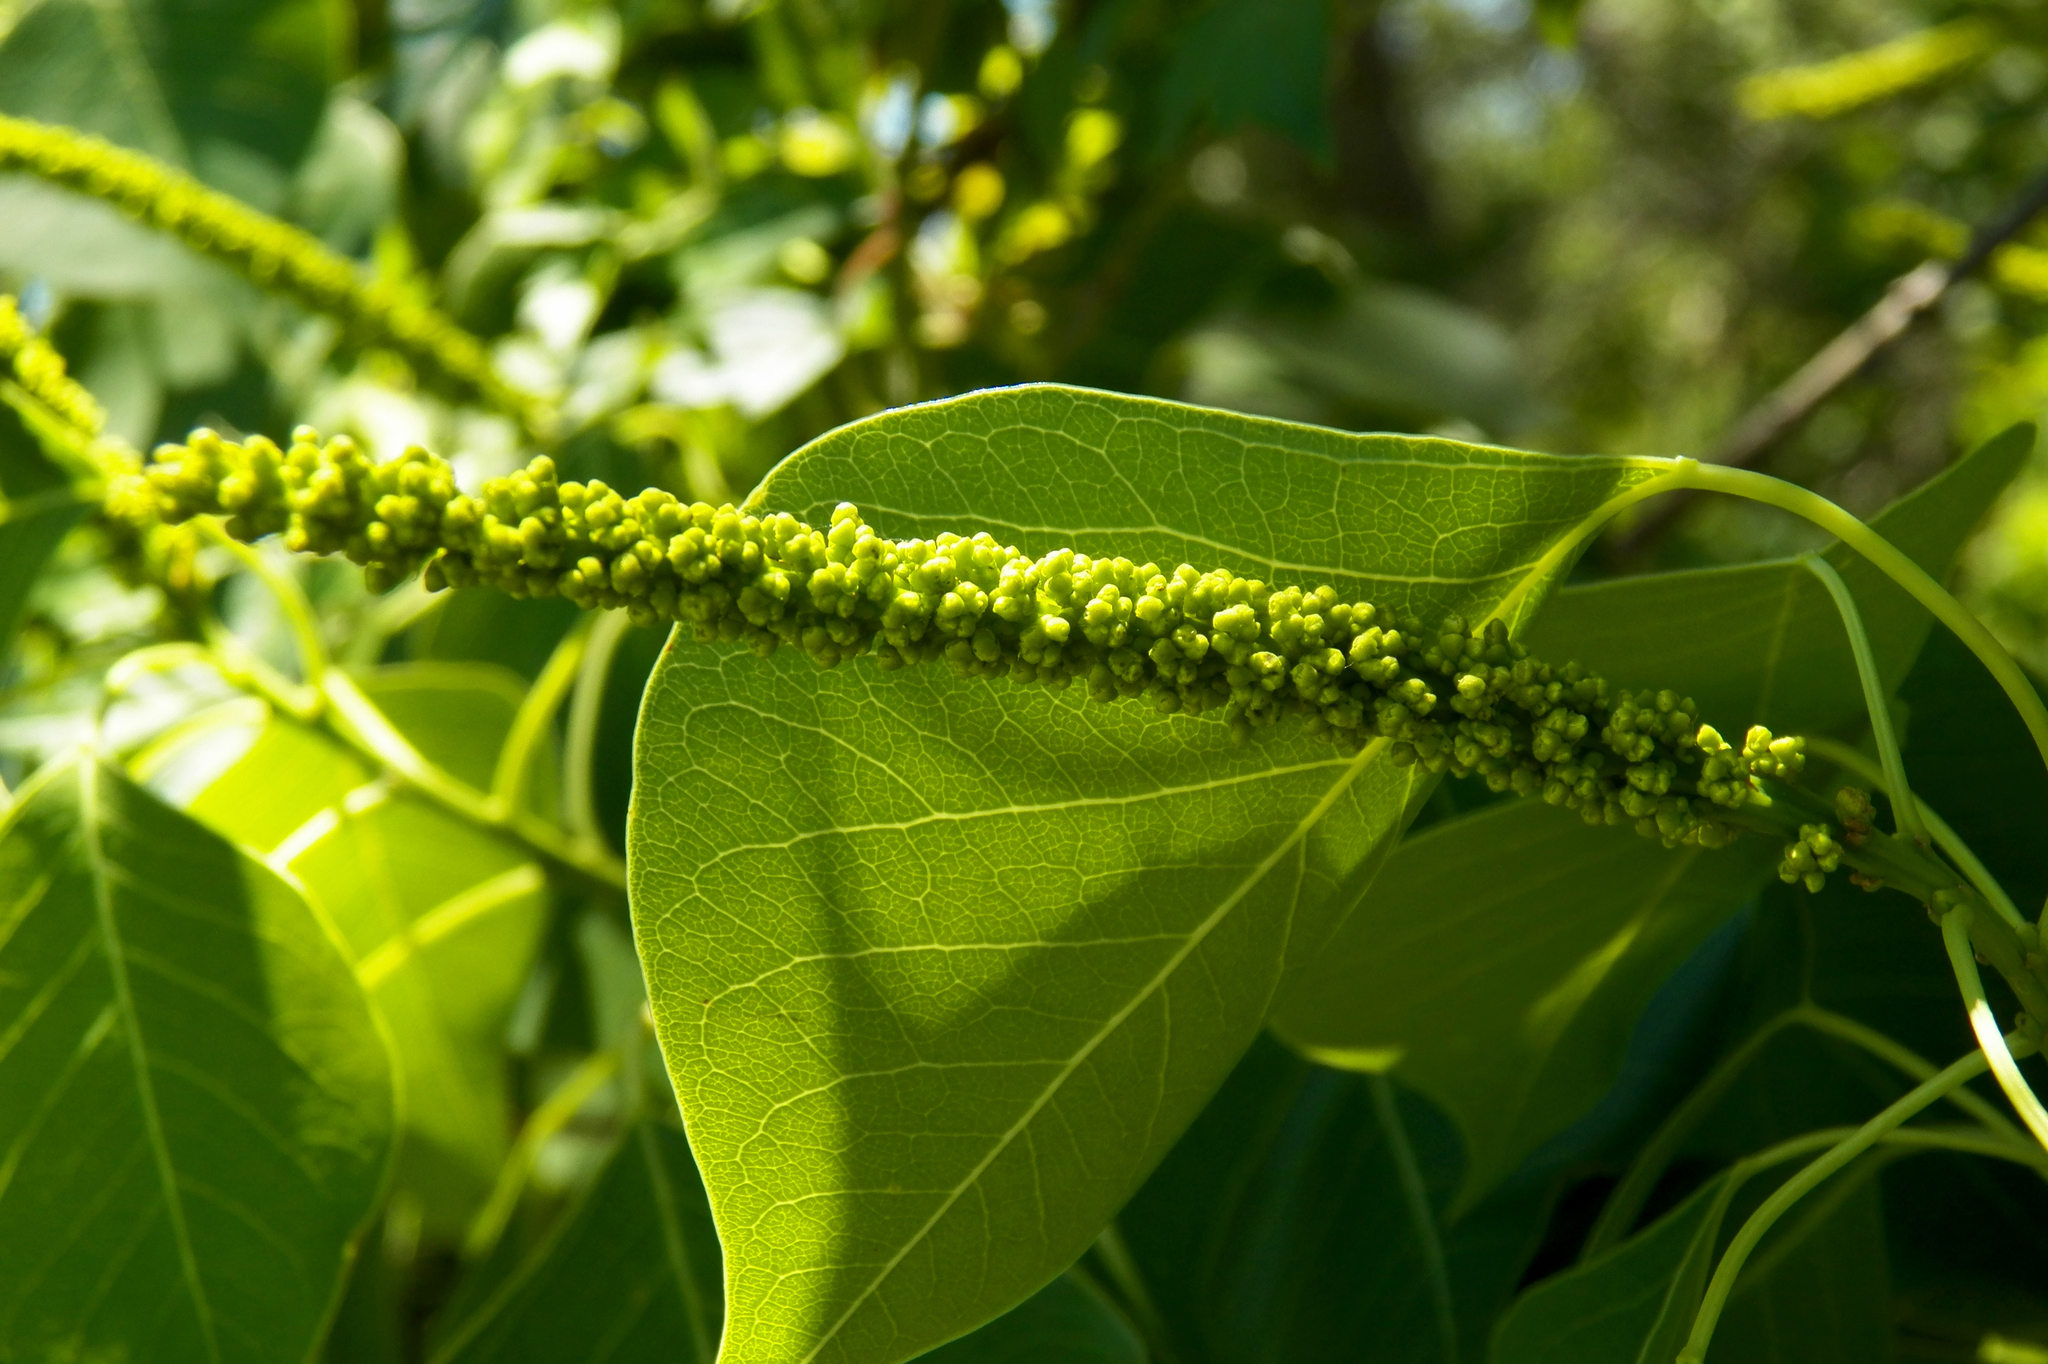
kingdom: Plantae
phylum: Tracheophyta
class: Magnoliopsida
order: Malpighiales
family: Euphorbiaceae
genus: Triadica
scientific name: Triadica sebifera
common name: Chinese tallow
